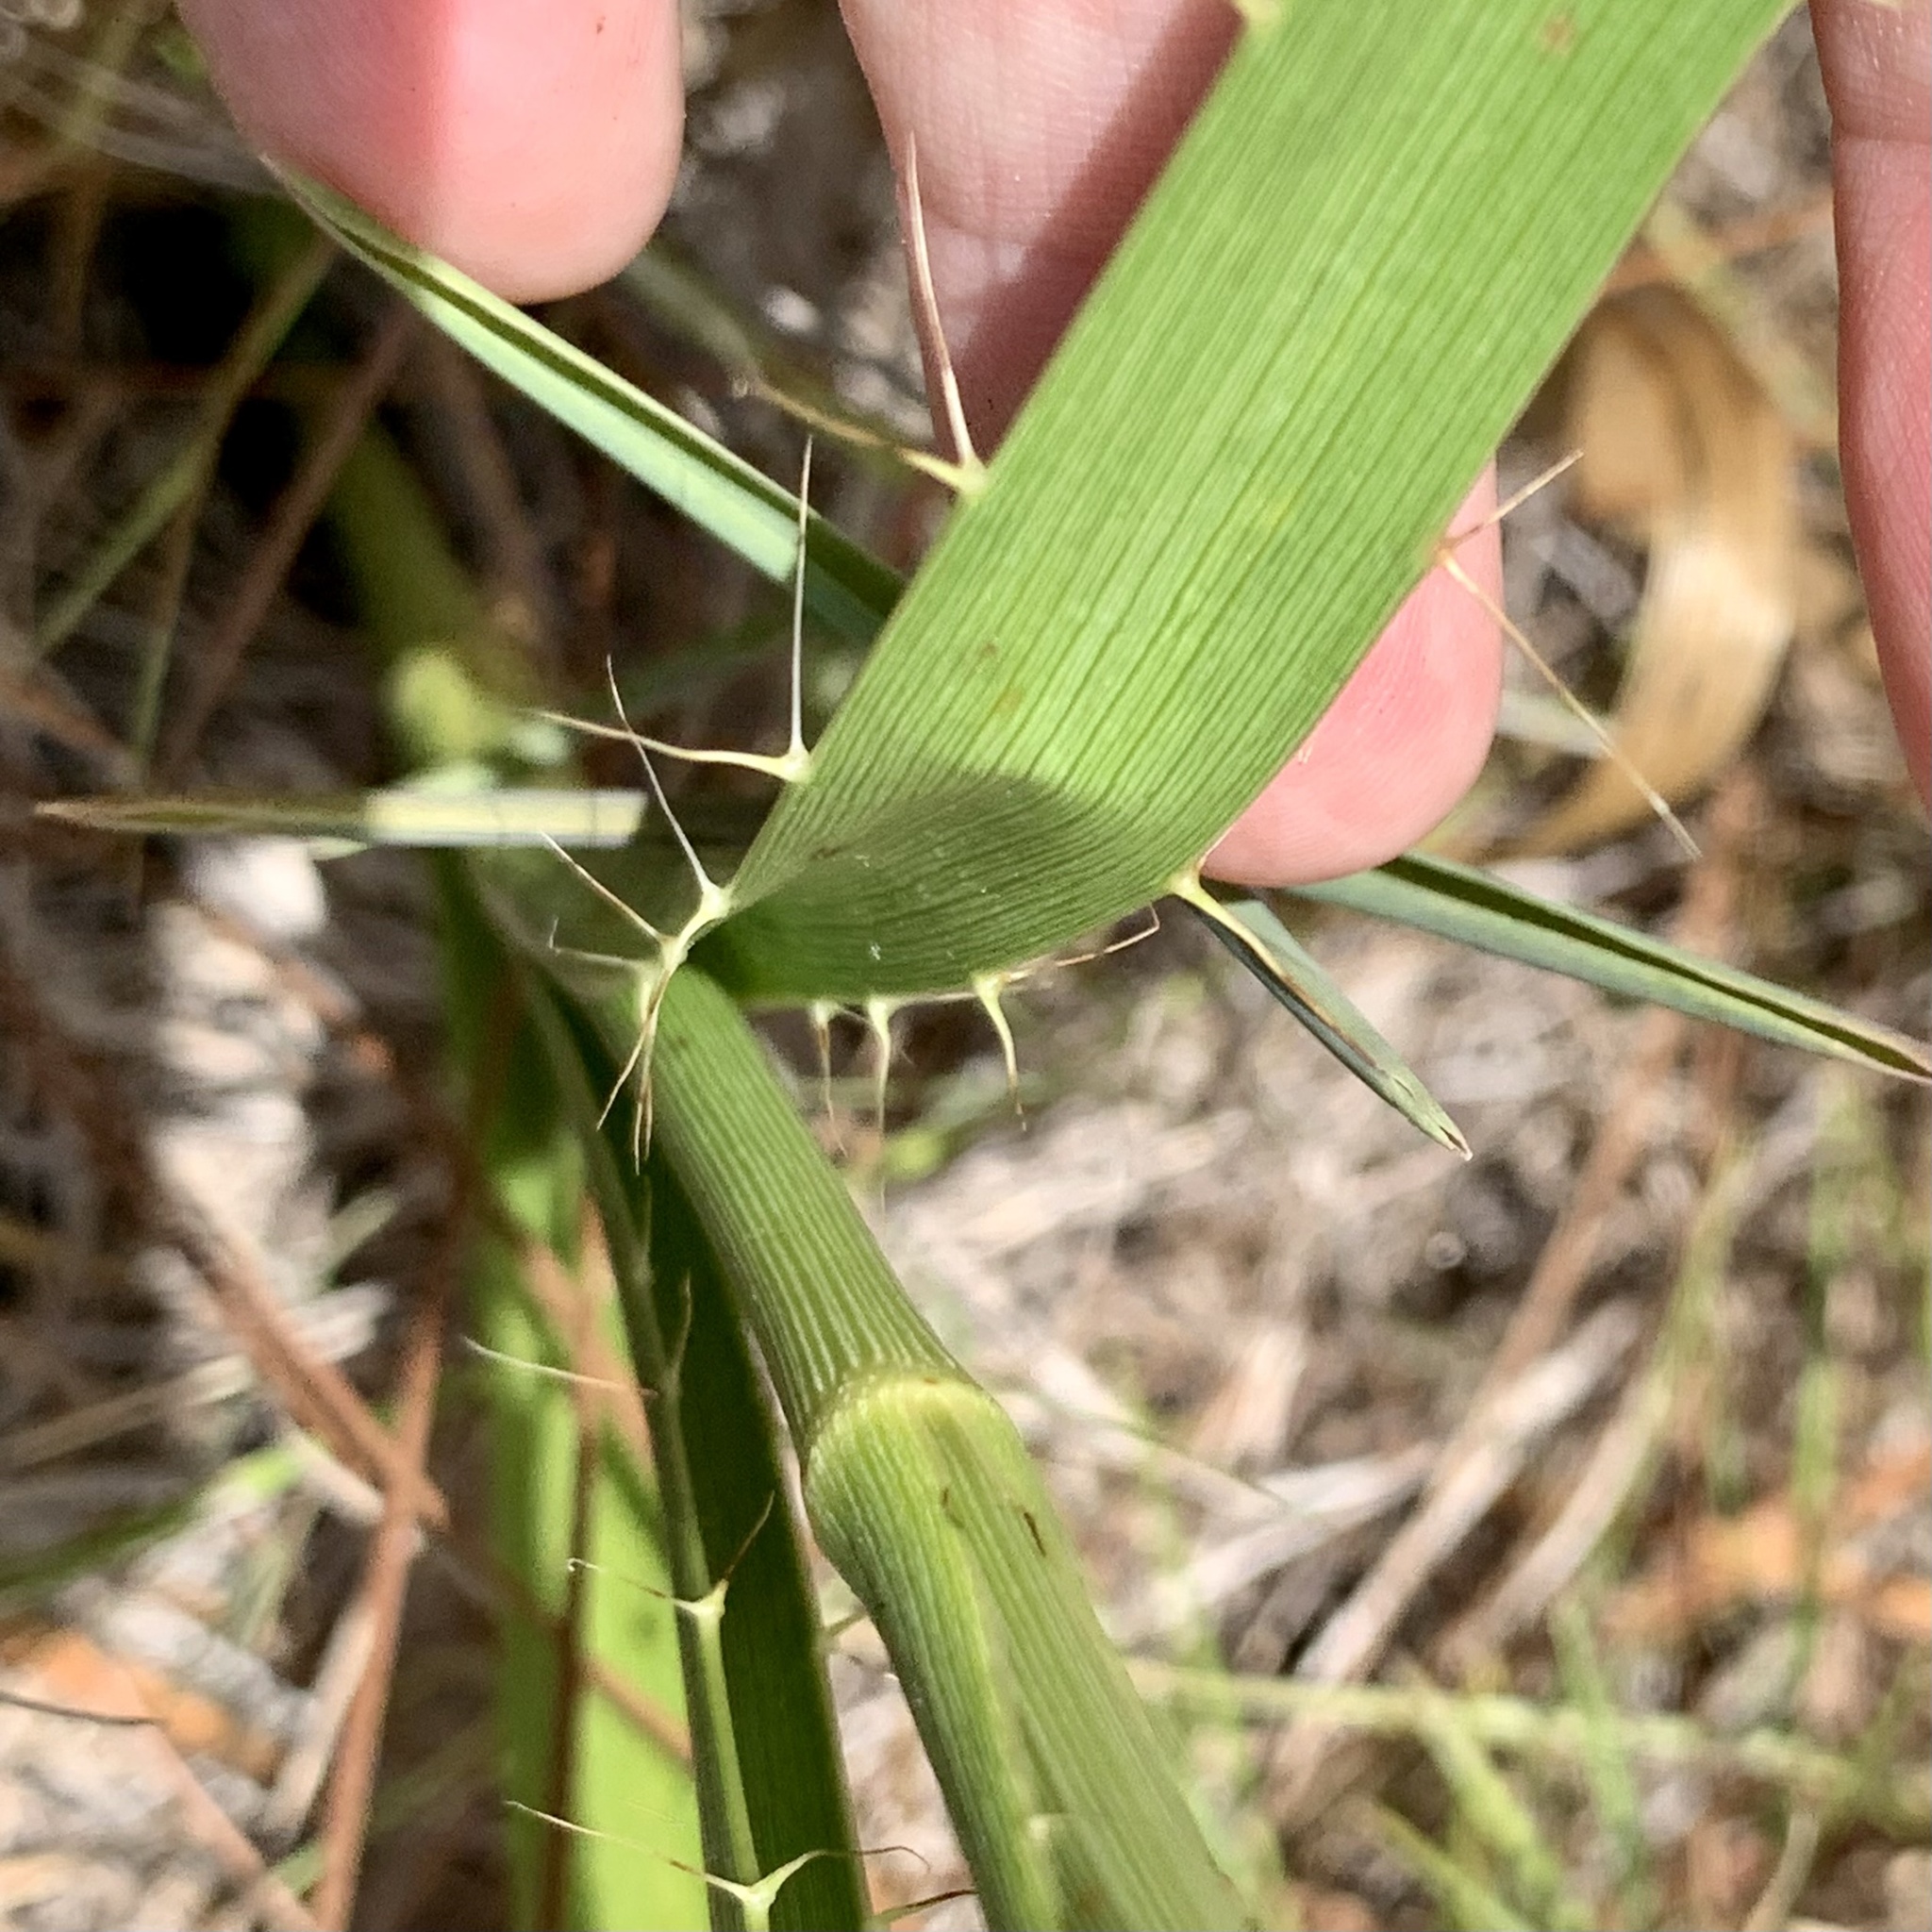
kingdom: Plantae
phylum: Tracheophyta
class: Magnoliopsida
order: Apiales
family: Apiaceae
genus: Eryngium
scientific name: Eryngium yuccifolium
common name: Button eryngo
